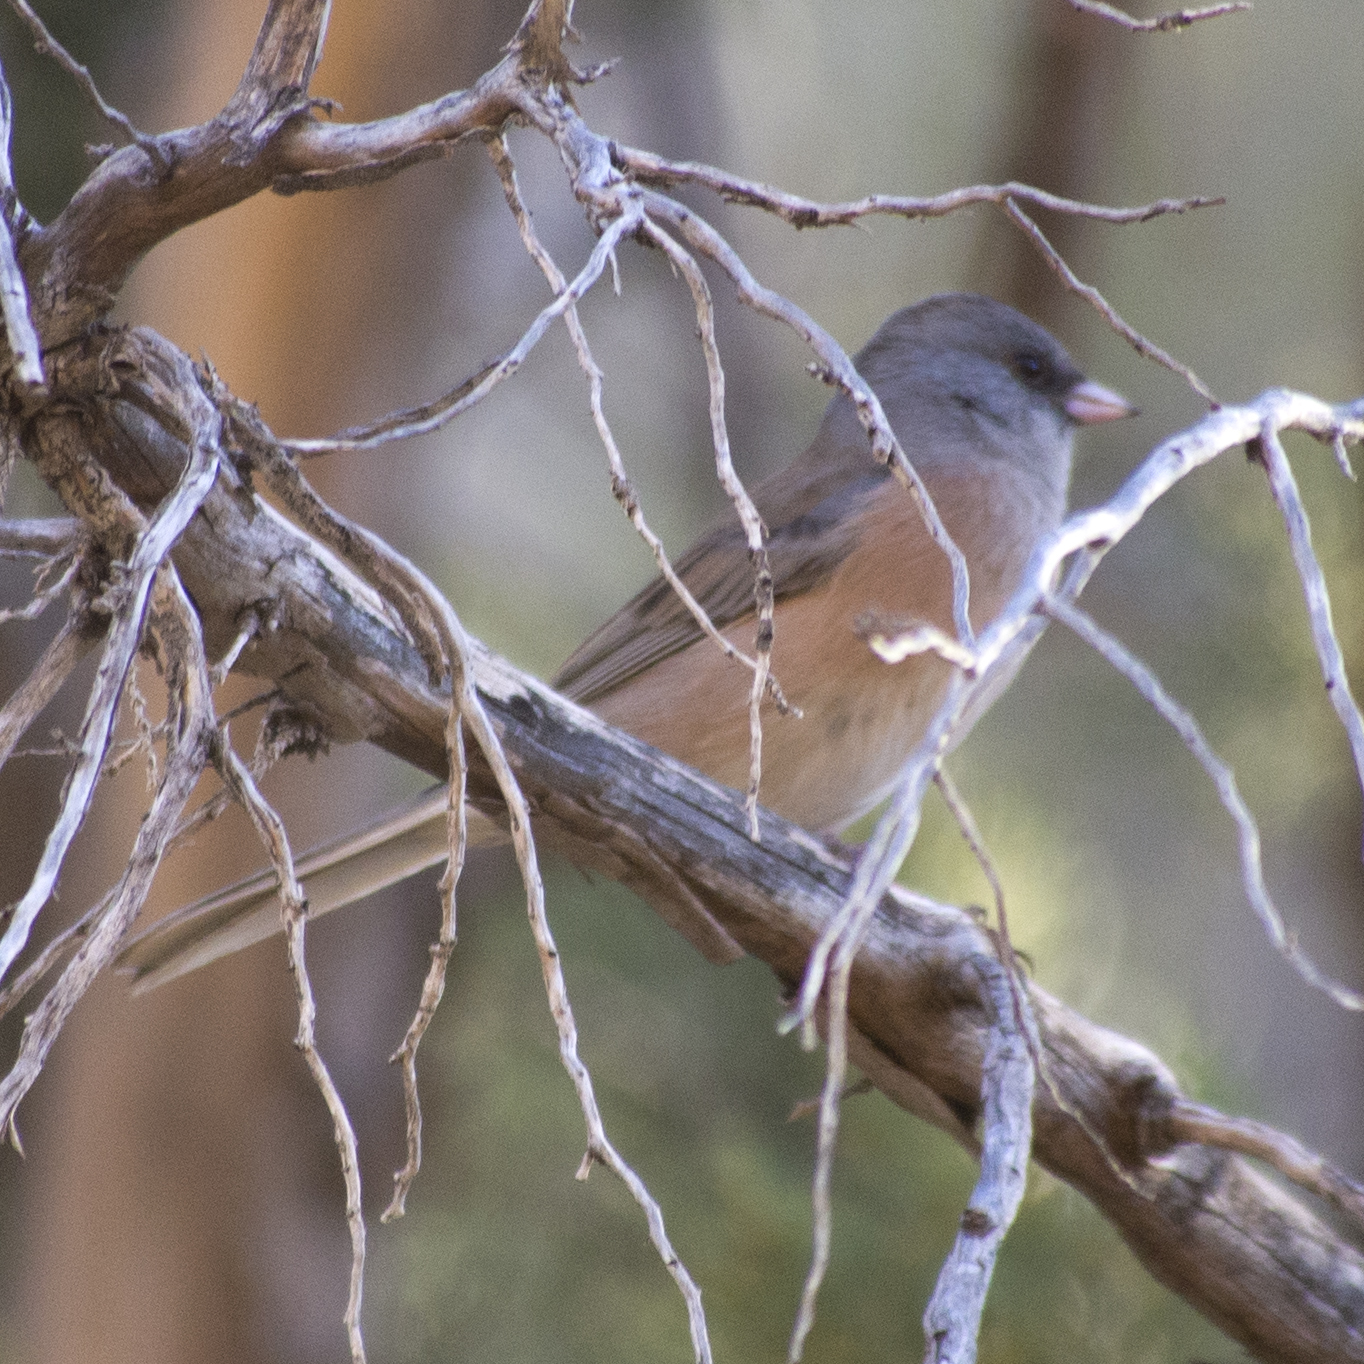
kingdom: Animalia
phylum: Chordata
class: Aves
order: Passeriformes
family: Passerellidae
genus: Junco
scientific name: Junco hyemalis
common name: Dark-eyed junco
